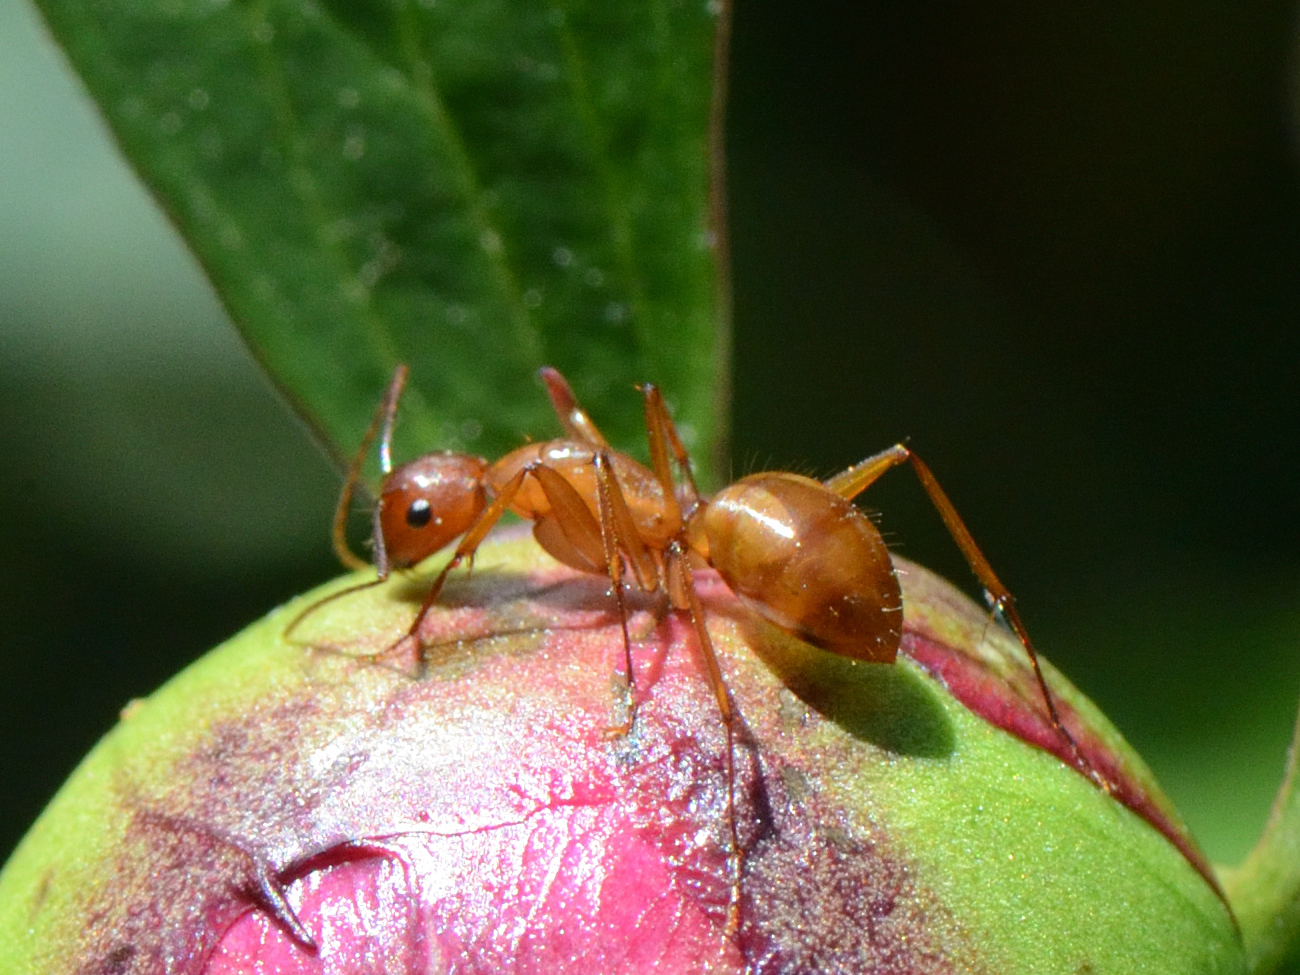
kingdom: Animalia
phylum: Arthropoda
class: Insecta
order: Hymenoptera
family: Formicidae
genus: Camponotus
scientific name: Camponotus castaneus
